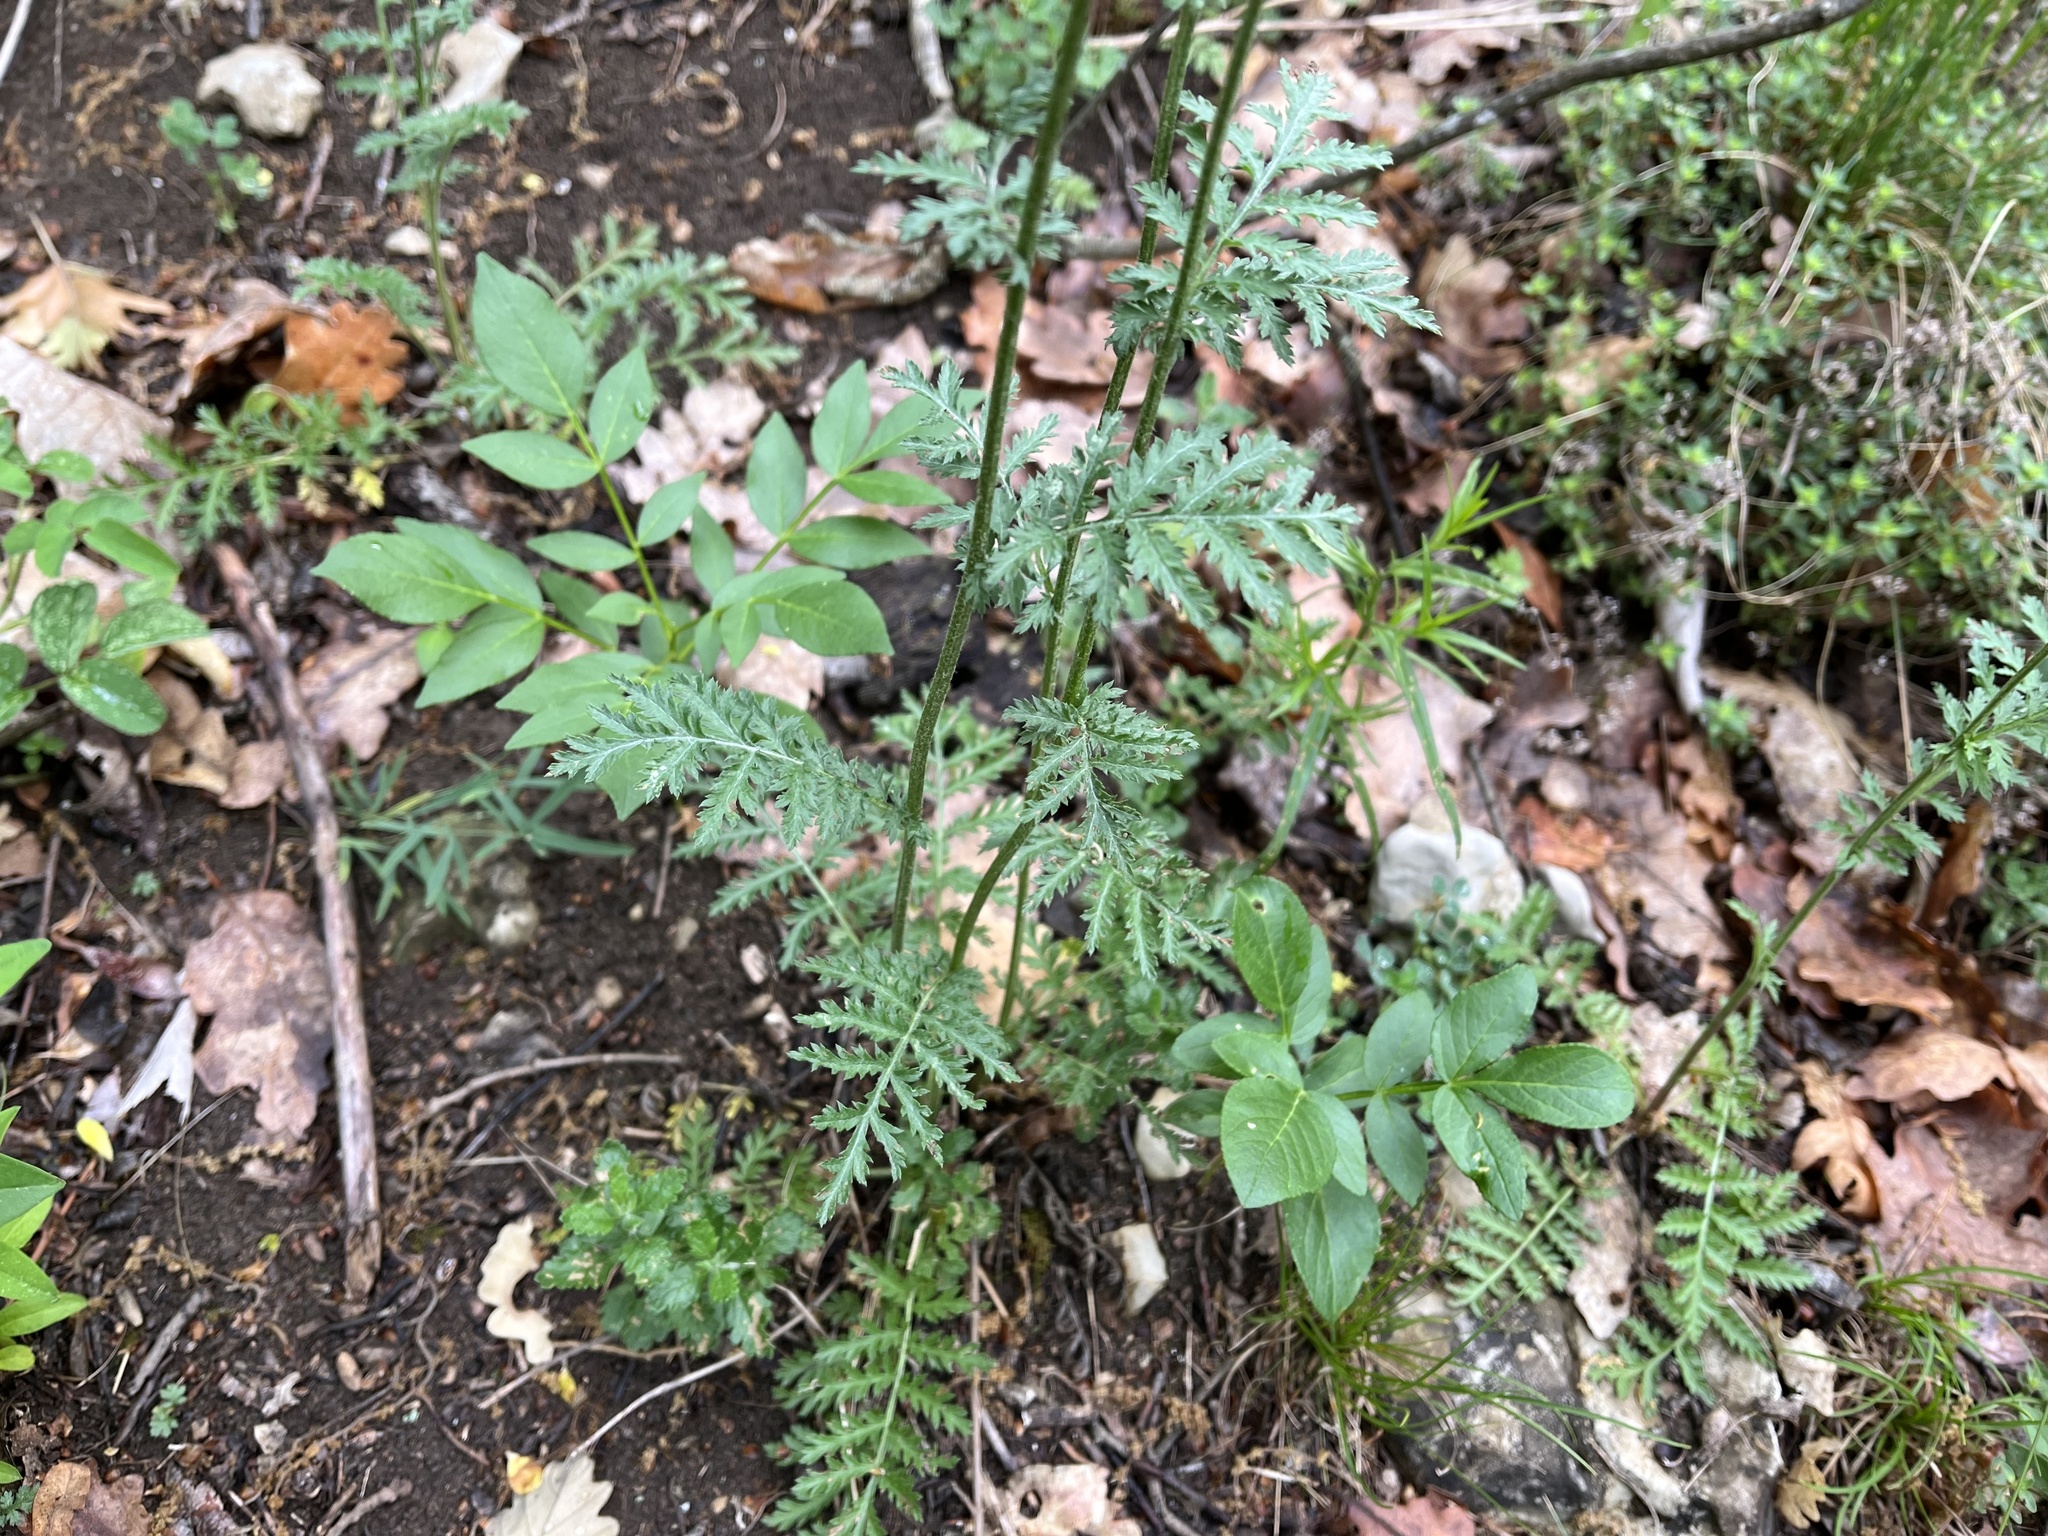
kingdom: Plantae
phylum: Tracheophyta
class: Magnoliopsida
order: Asterales
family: Asteraceae
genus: Tanacetum
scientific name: Tanacetum corymbosum
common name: Scentless feverfew
